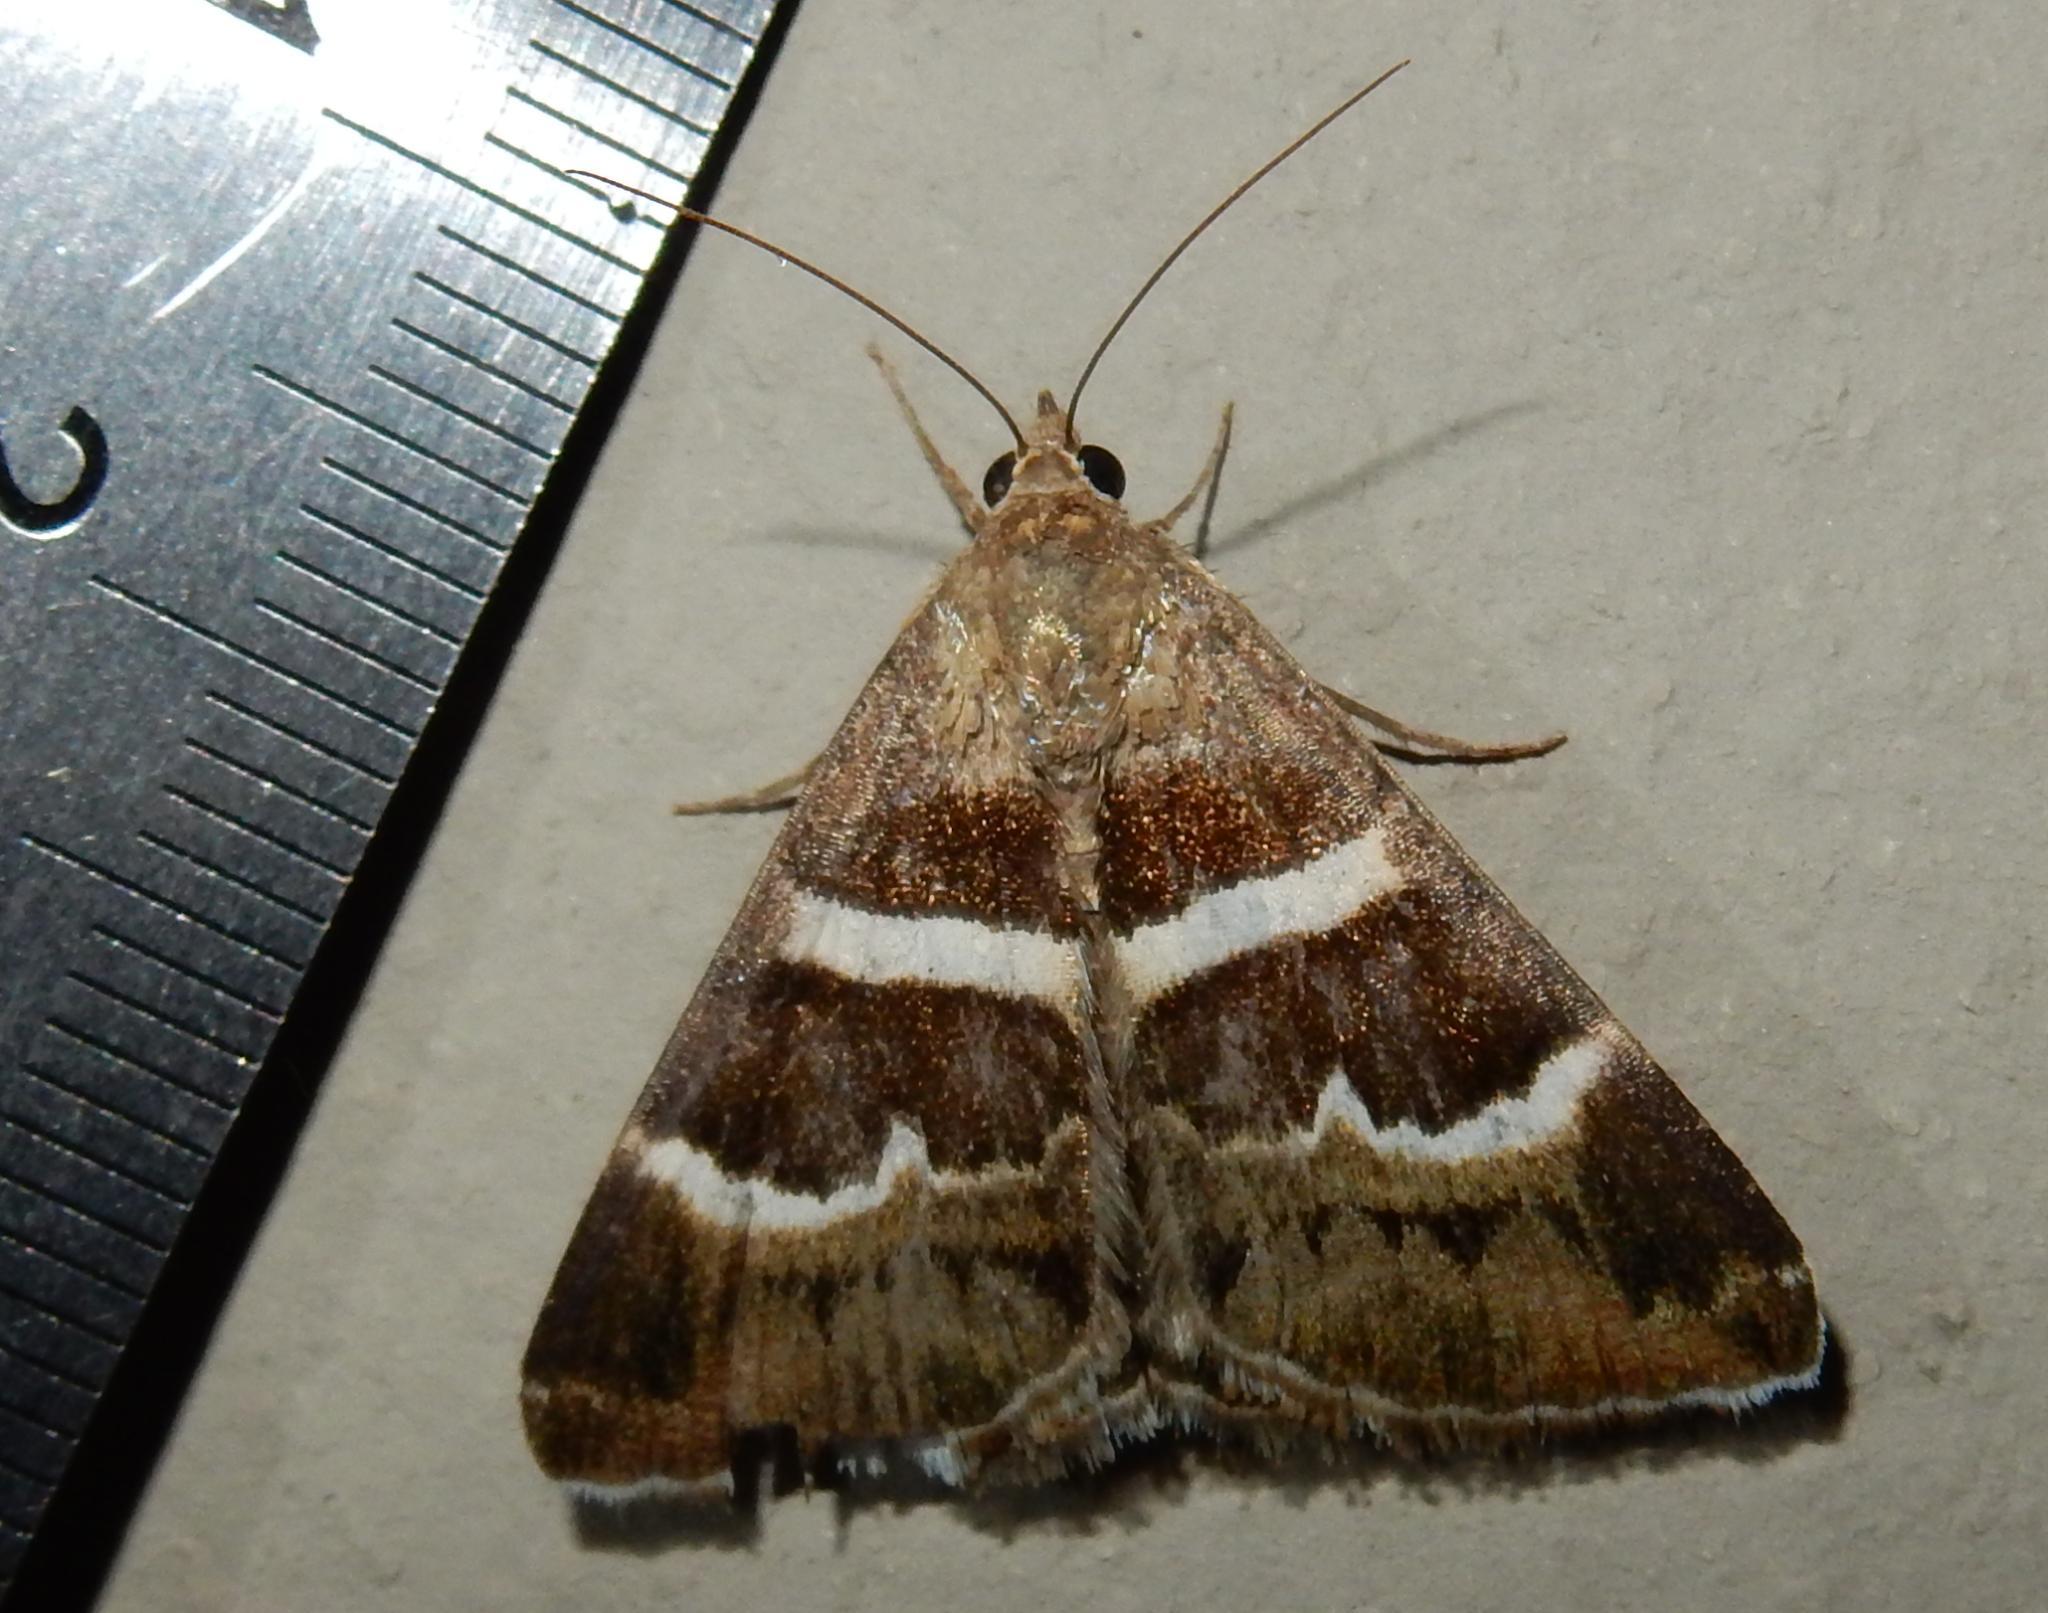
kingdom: Animalia
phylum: Arthropoda
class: Insecta
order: Lepidoptera
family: Erebidae
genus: Grammodes
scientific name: Grammodes stolida
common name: Geometrician
